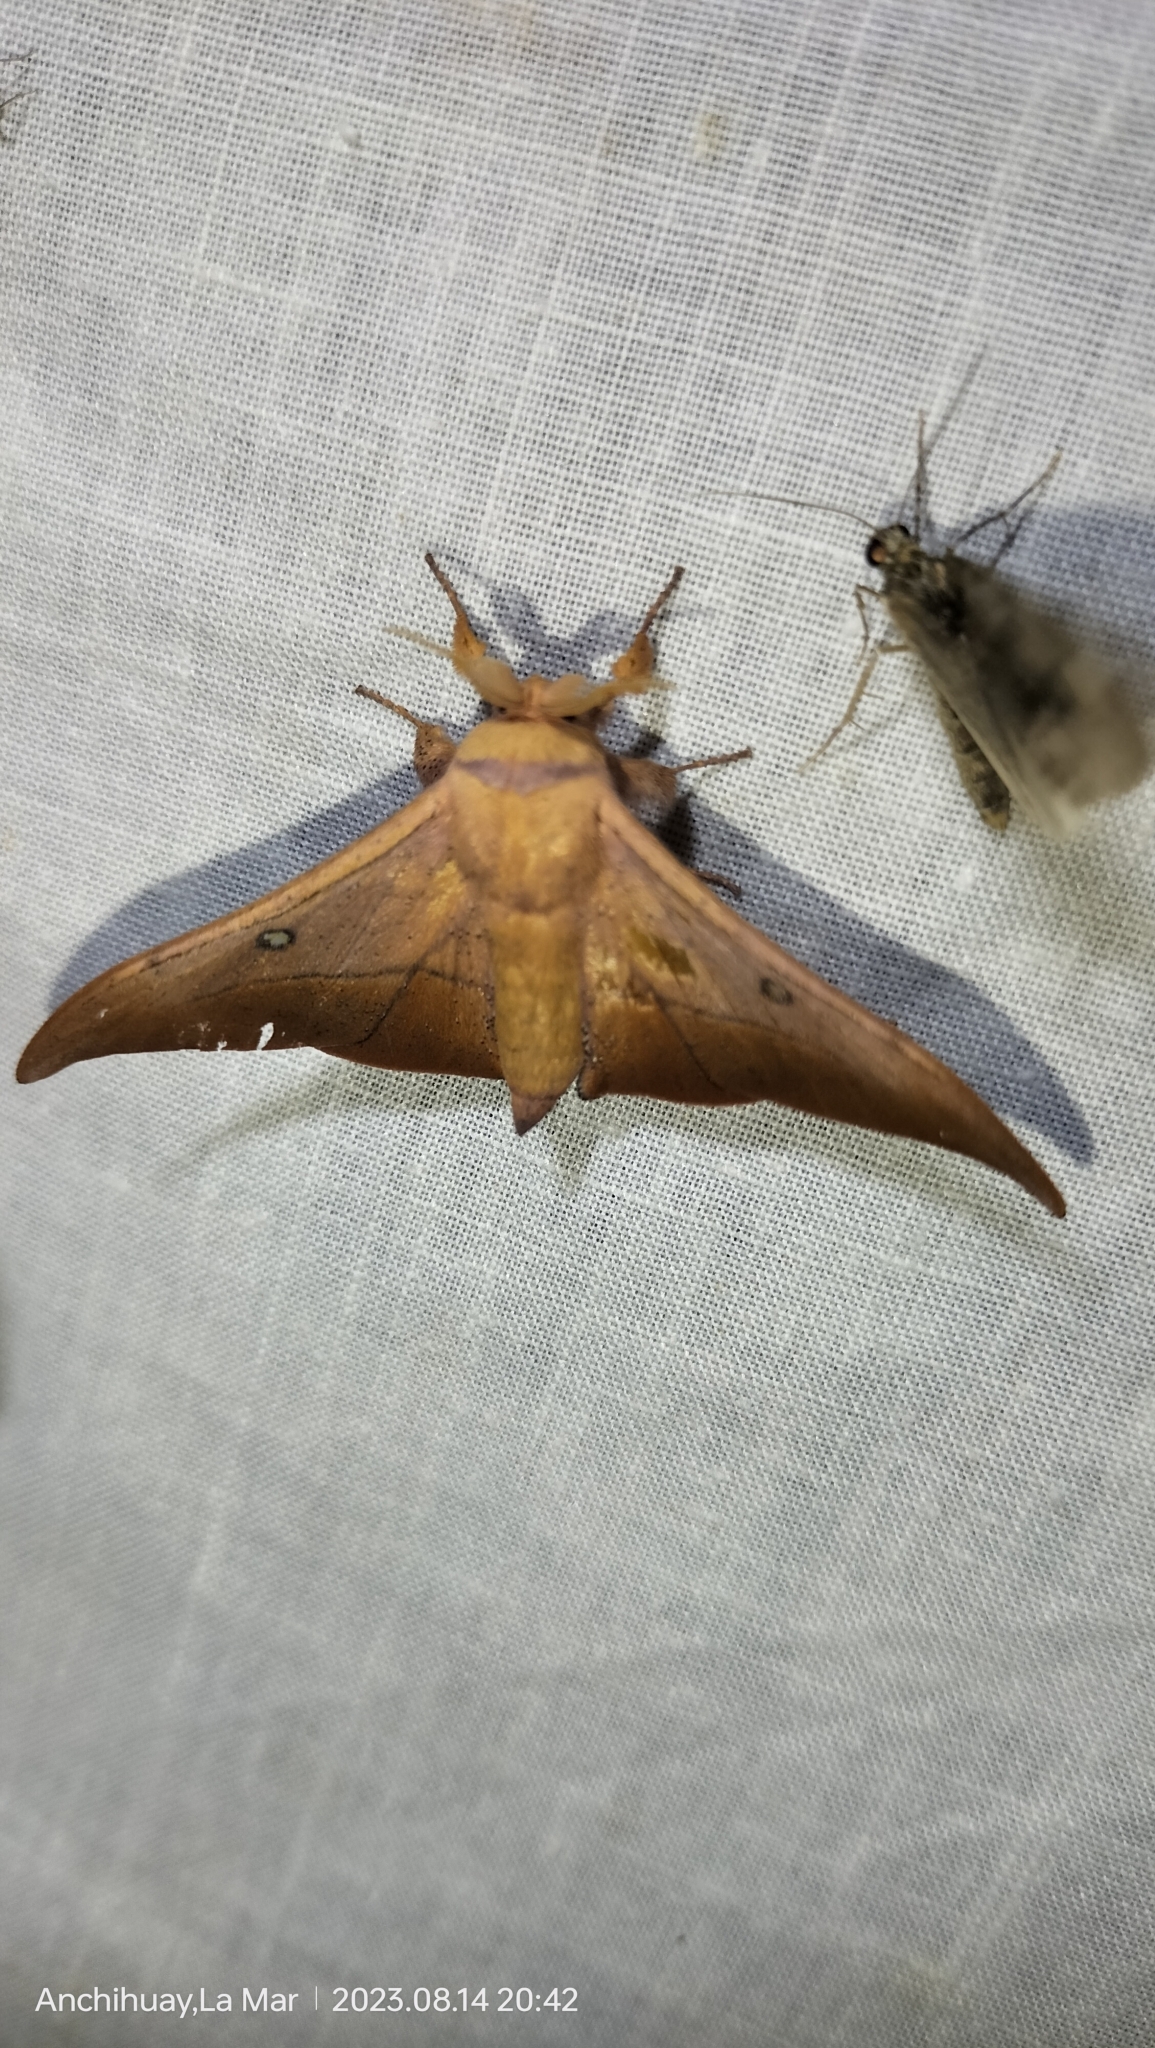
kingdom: Animalia
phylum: Arthropoda
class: Insecta
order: Lepidoptera
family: Mimallonidae
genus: Isoscella
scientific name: Isoscella leva
